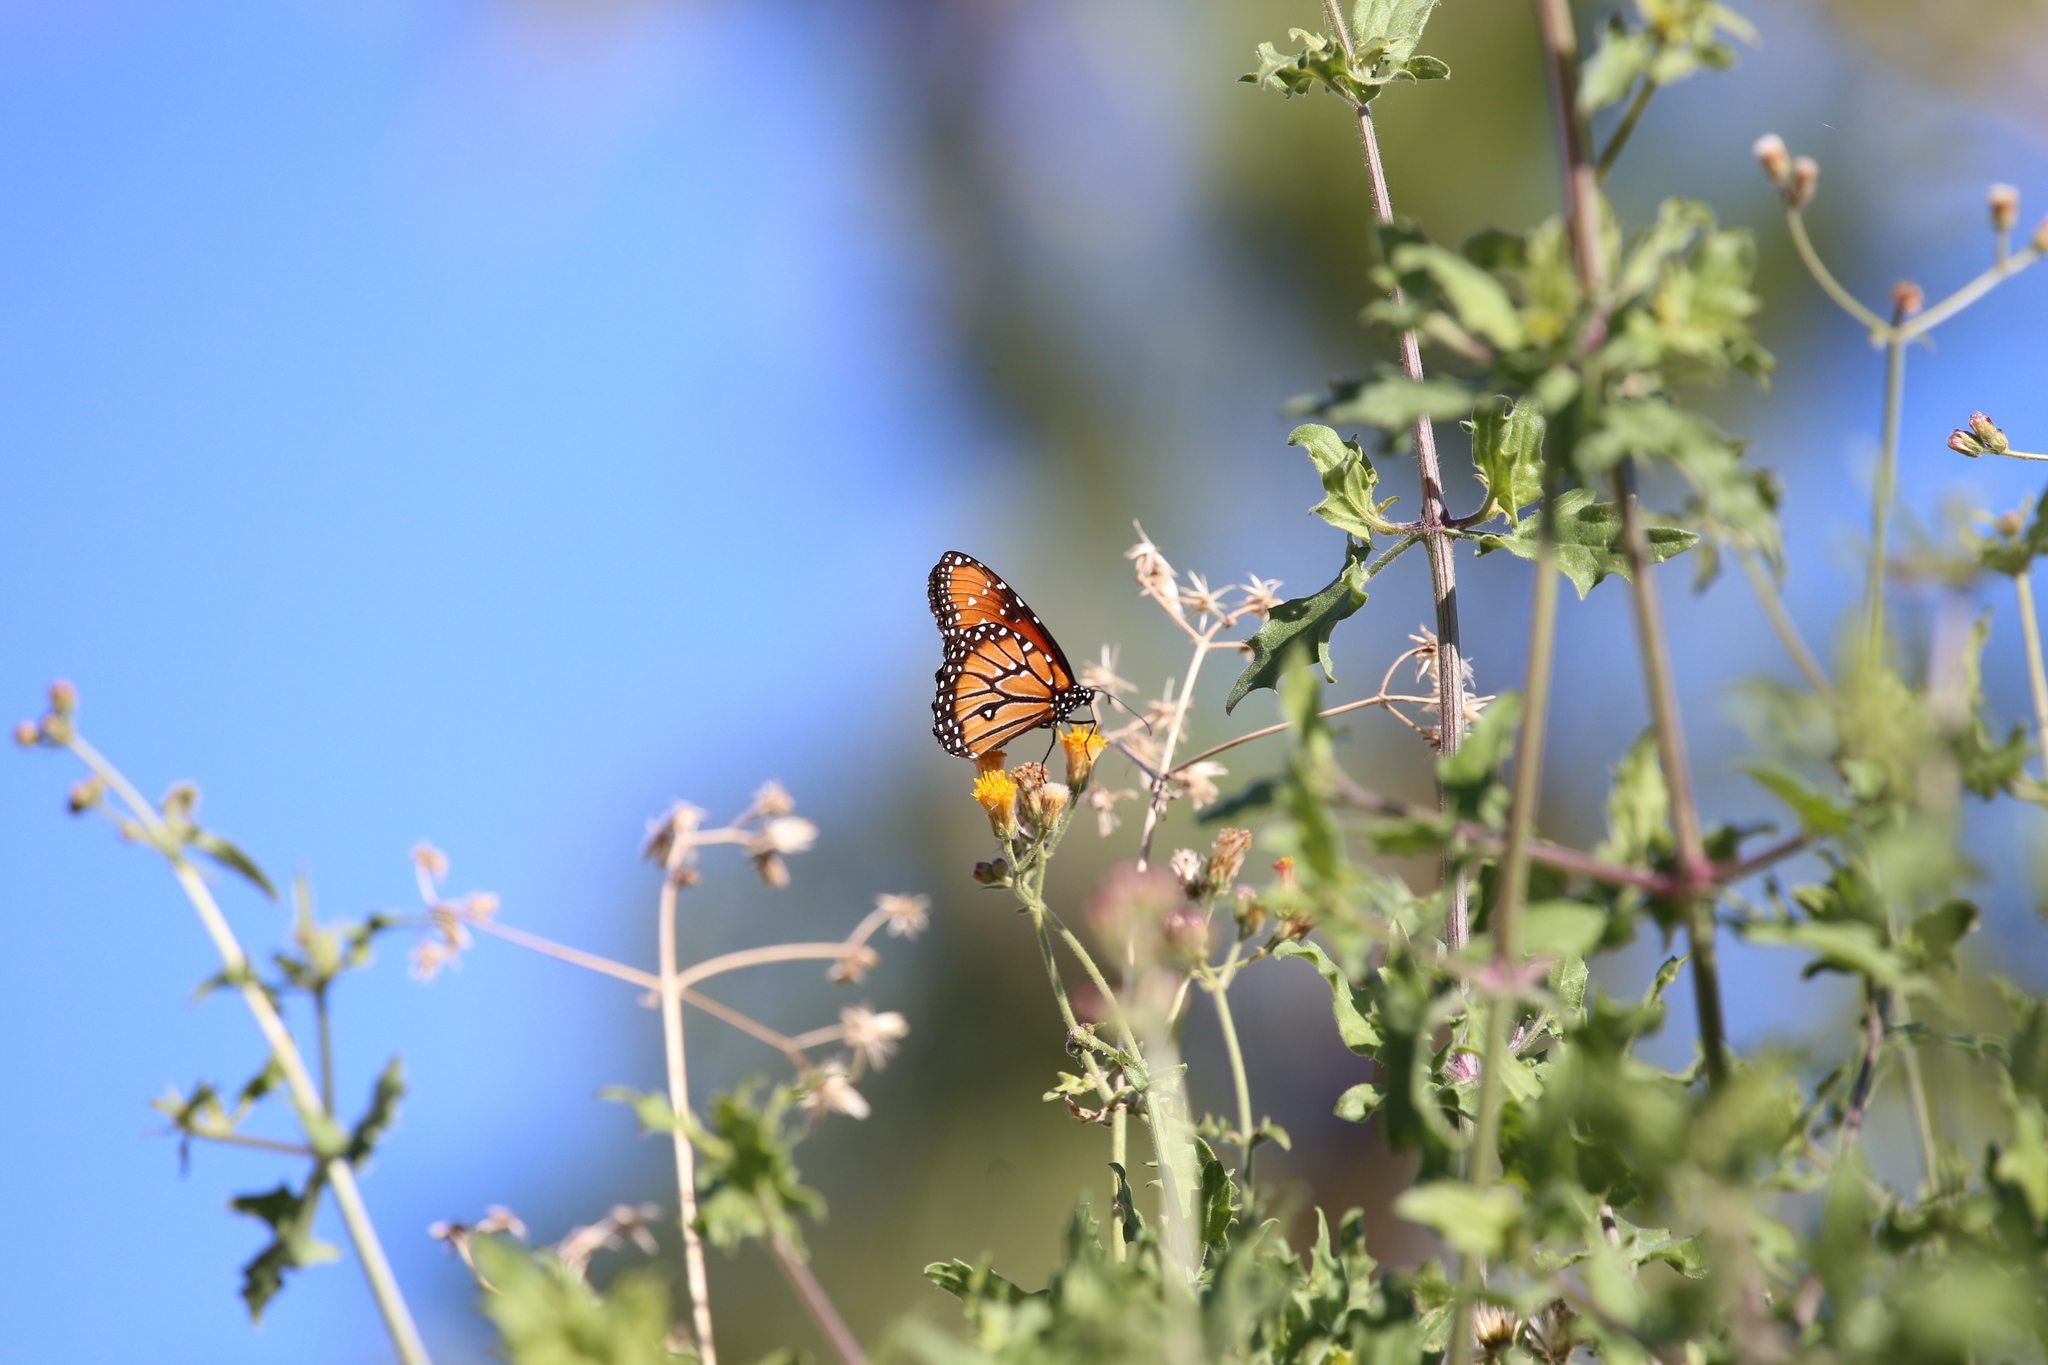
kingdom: Animalia
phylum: Arthropoda
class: Insecta
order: Lepidoptera
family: Nymphalidae
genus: Danaus
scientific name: Danaus gilippus
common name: Queen
